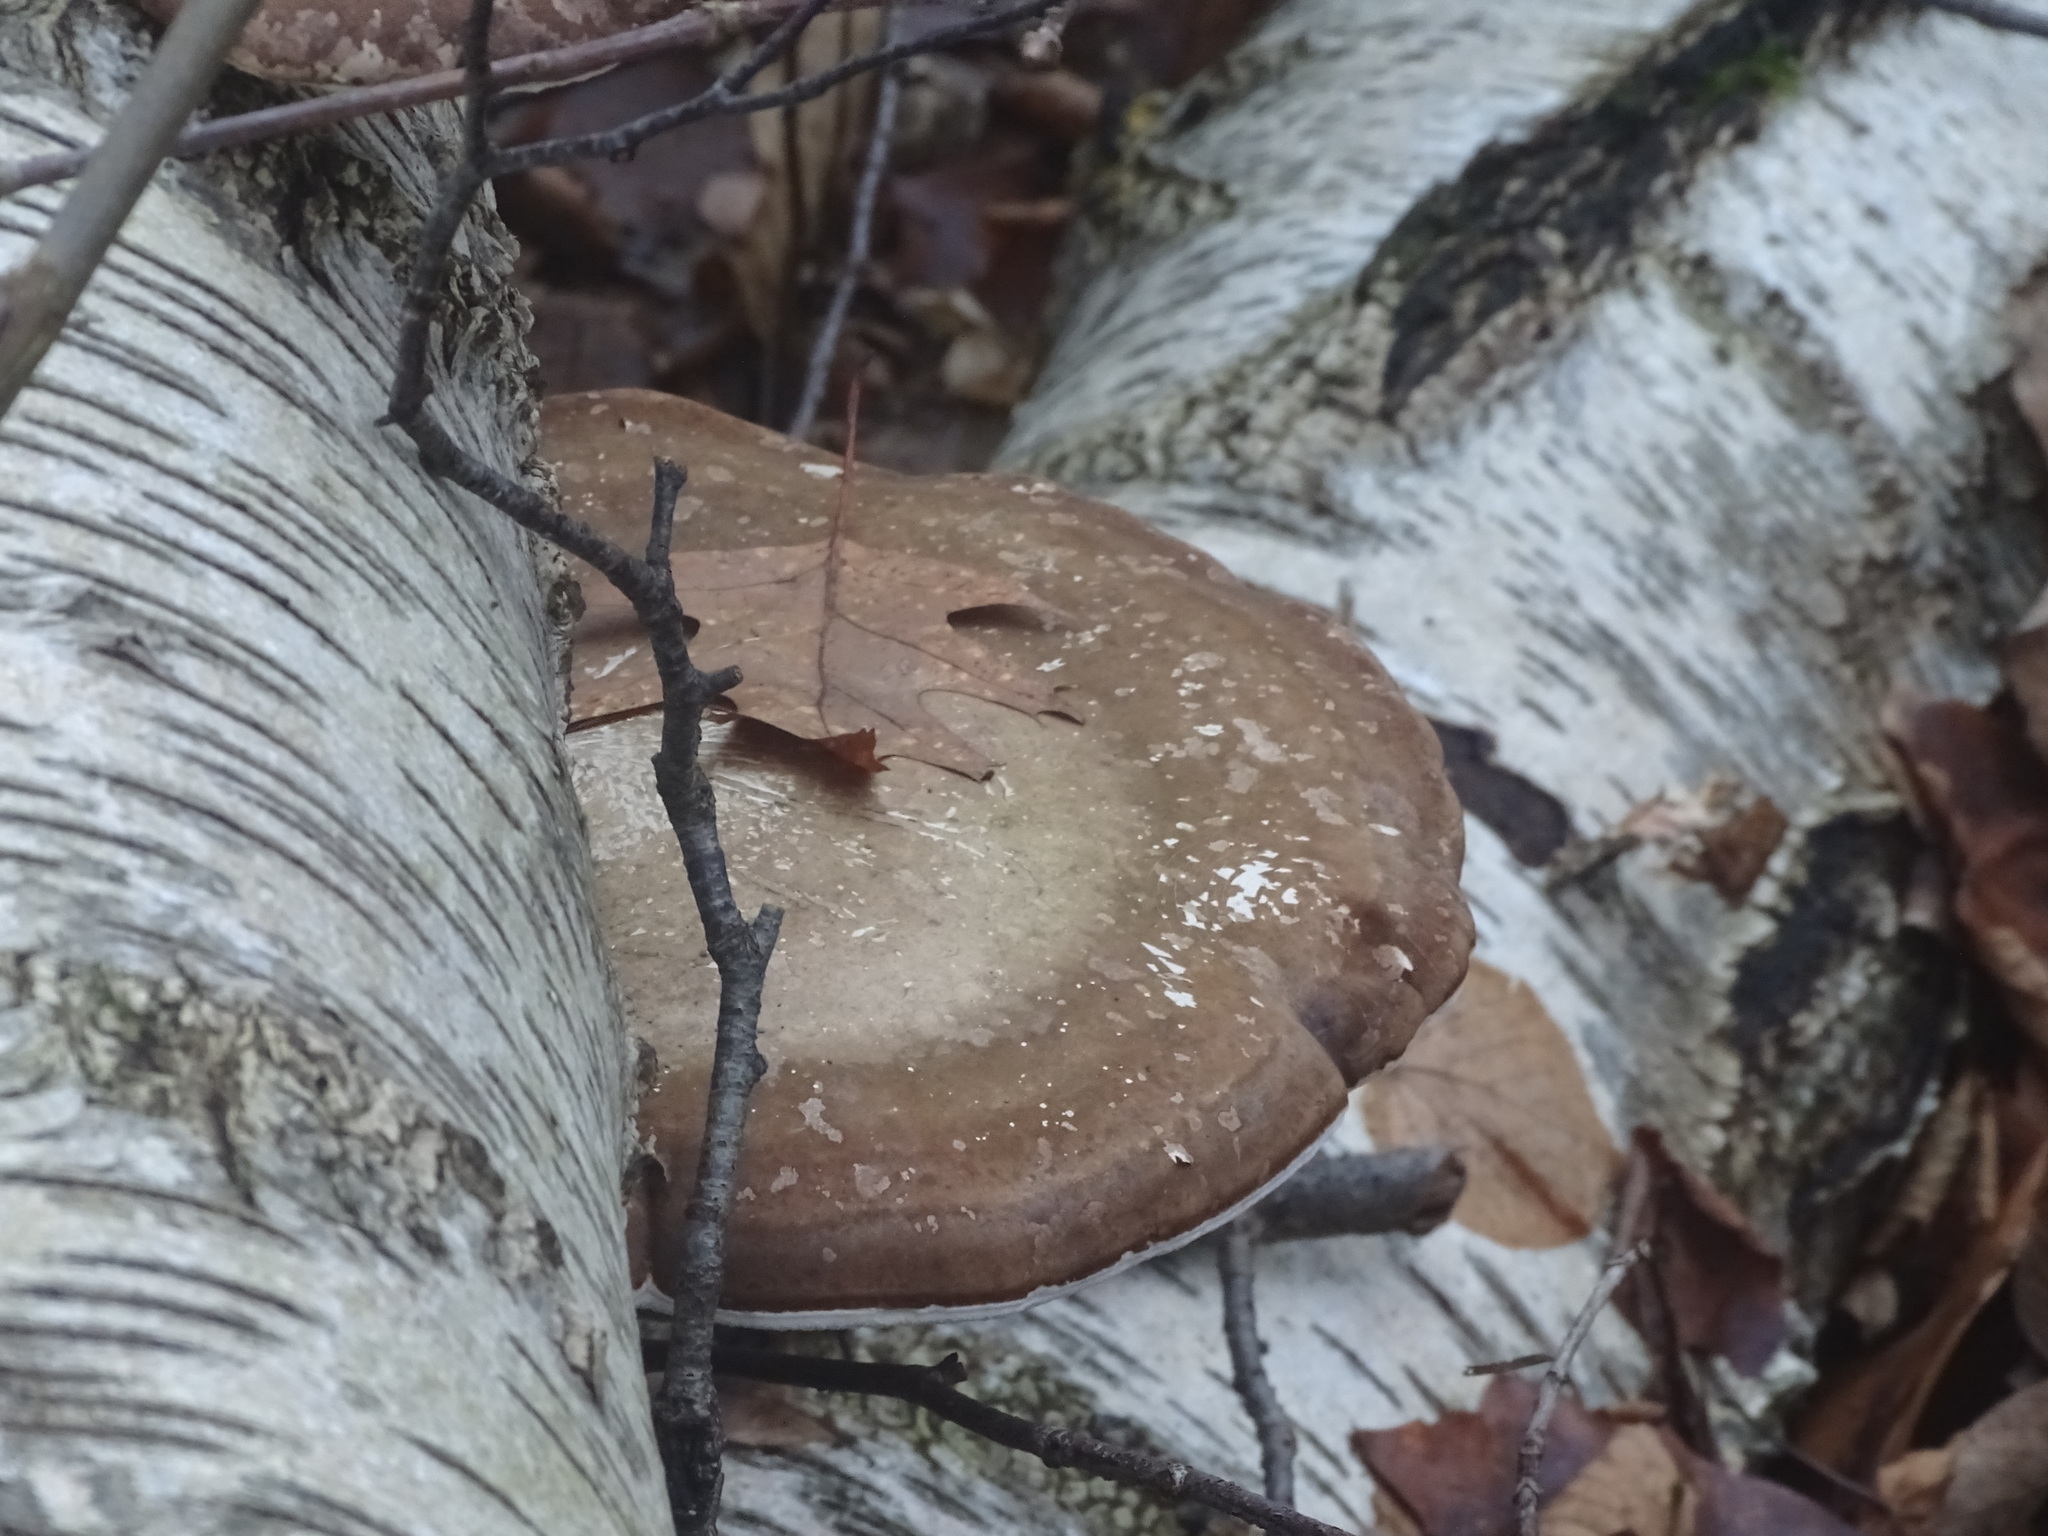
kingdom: Fungi
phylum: Basidiomycota
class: Agaricomycetes
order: Polyporales
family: Fomitopsidaceae
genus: Fomitopsis
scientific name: Fomitopsis betulina
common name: Birch polypore
